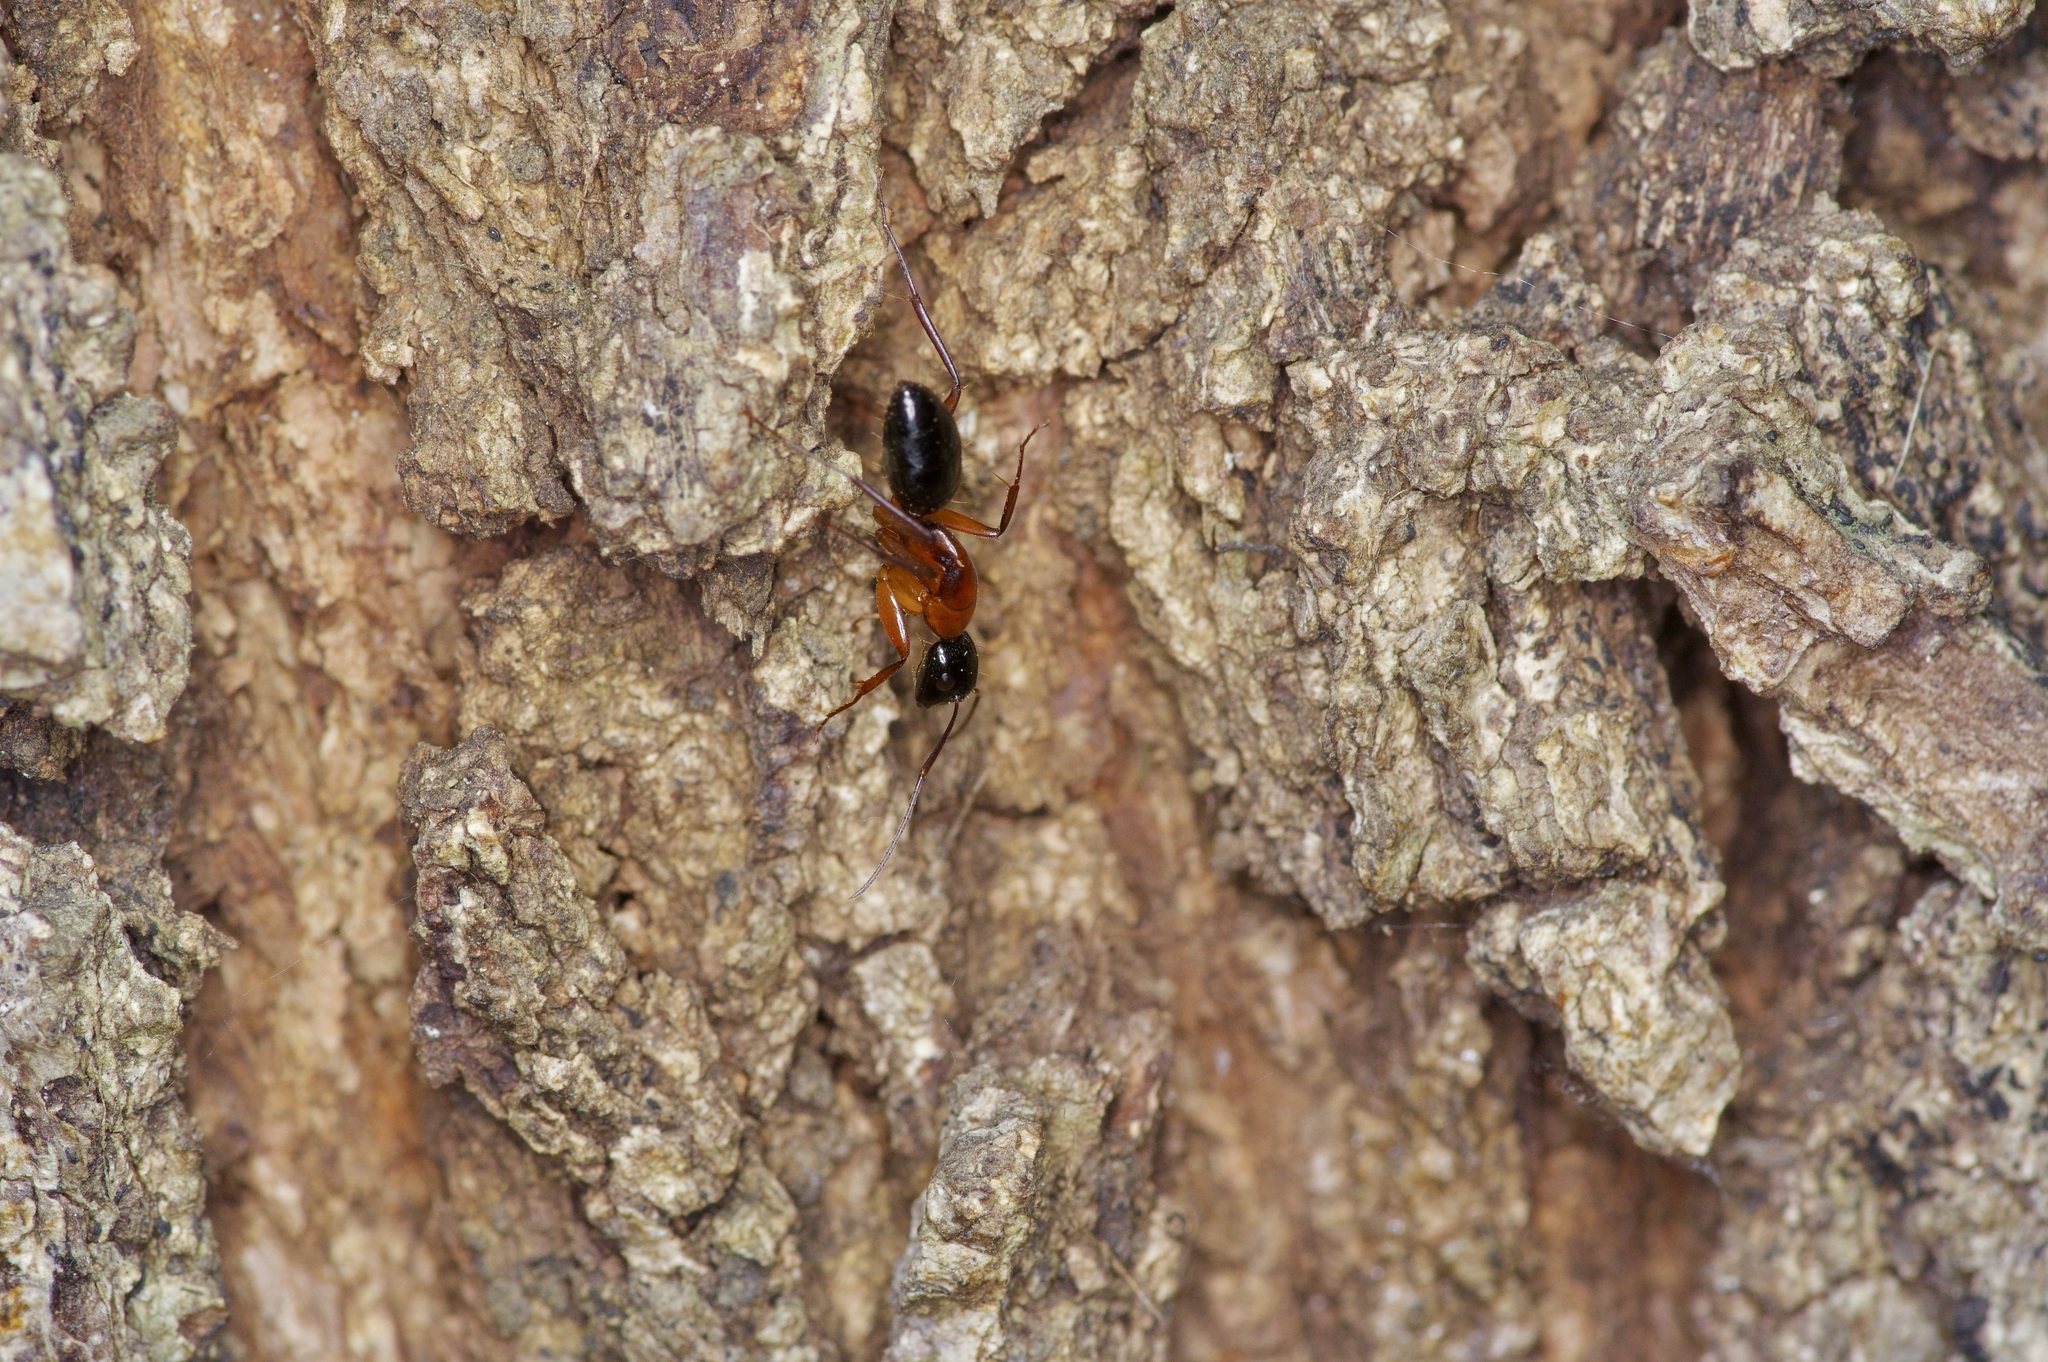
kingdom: Animalia
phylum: Arthropoda
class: Insecta
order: Hymenoptera
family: Formicidae
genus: Camponotus
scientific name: Camponotus texanus
